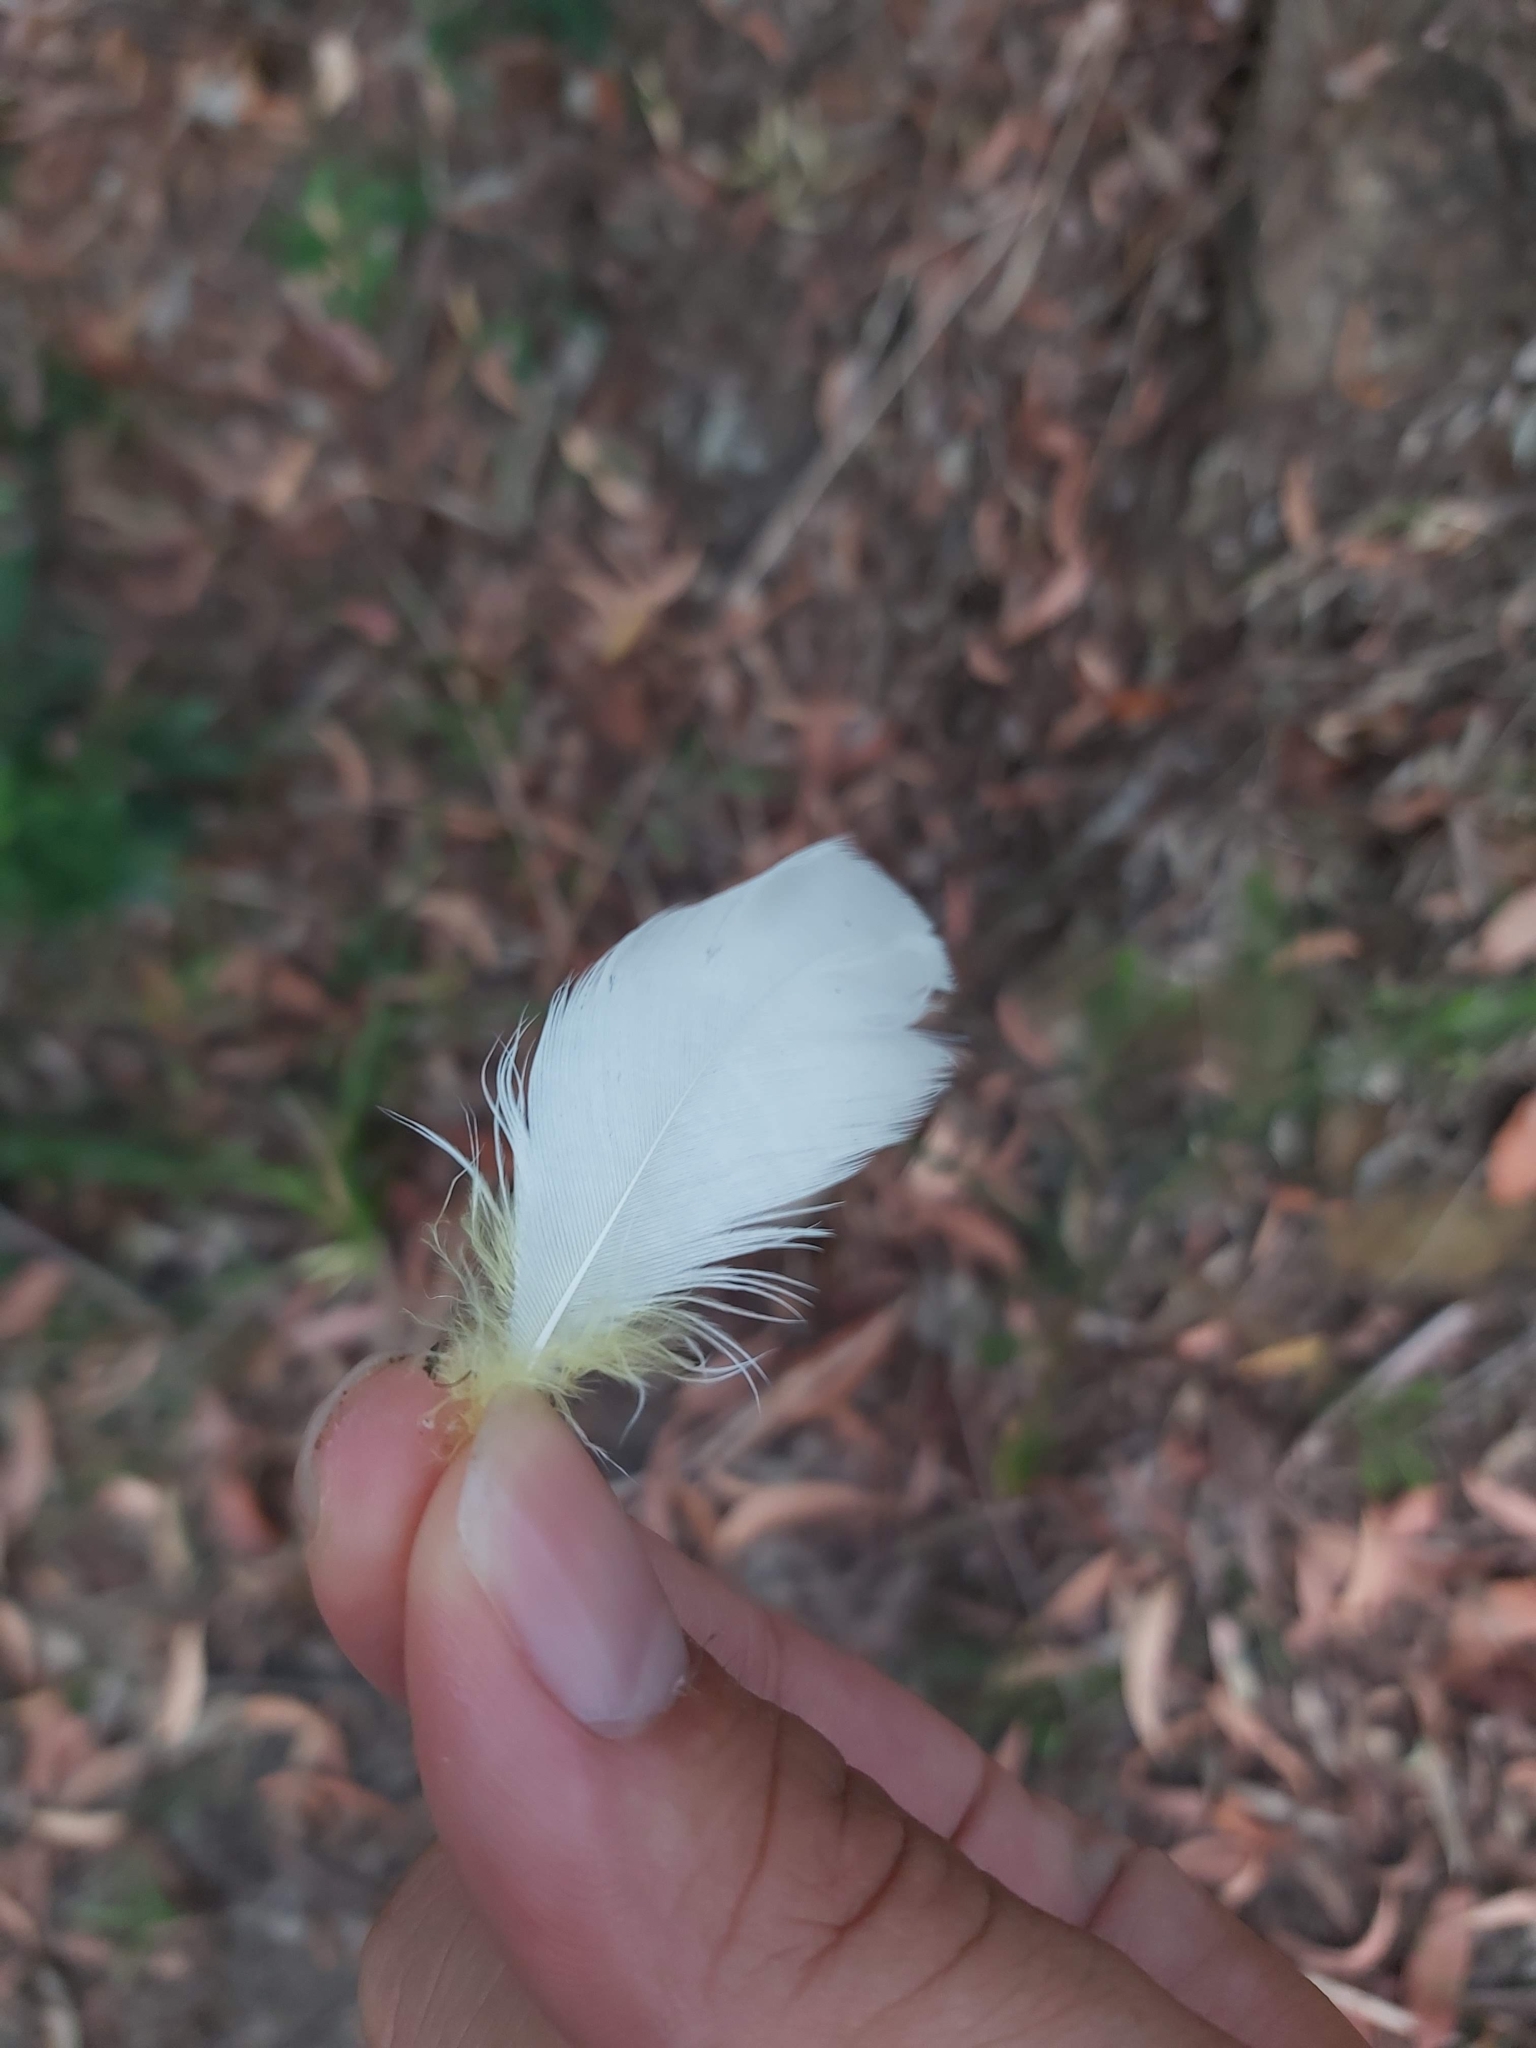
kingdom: Animalia
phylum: Chordata
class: Aves
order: Psittaciformes
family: Psittacidae
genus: Cacatua
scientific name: Cacatua galerita
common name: Sulphur-crested cockatoo
